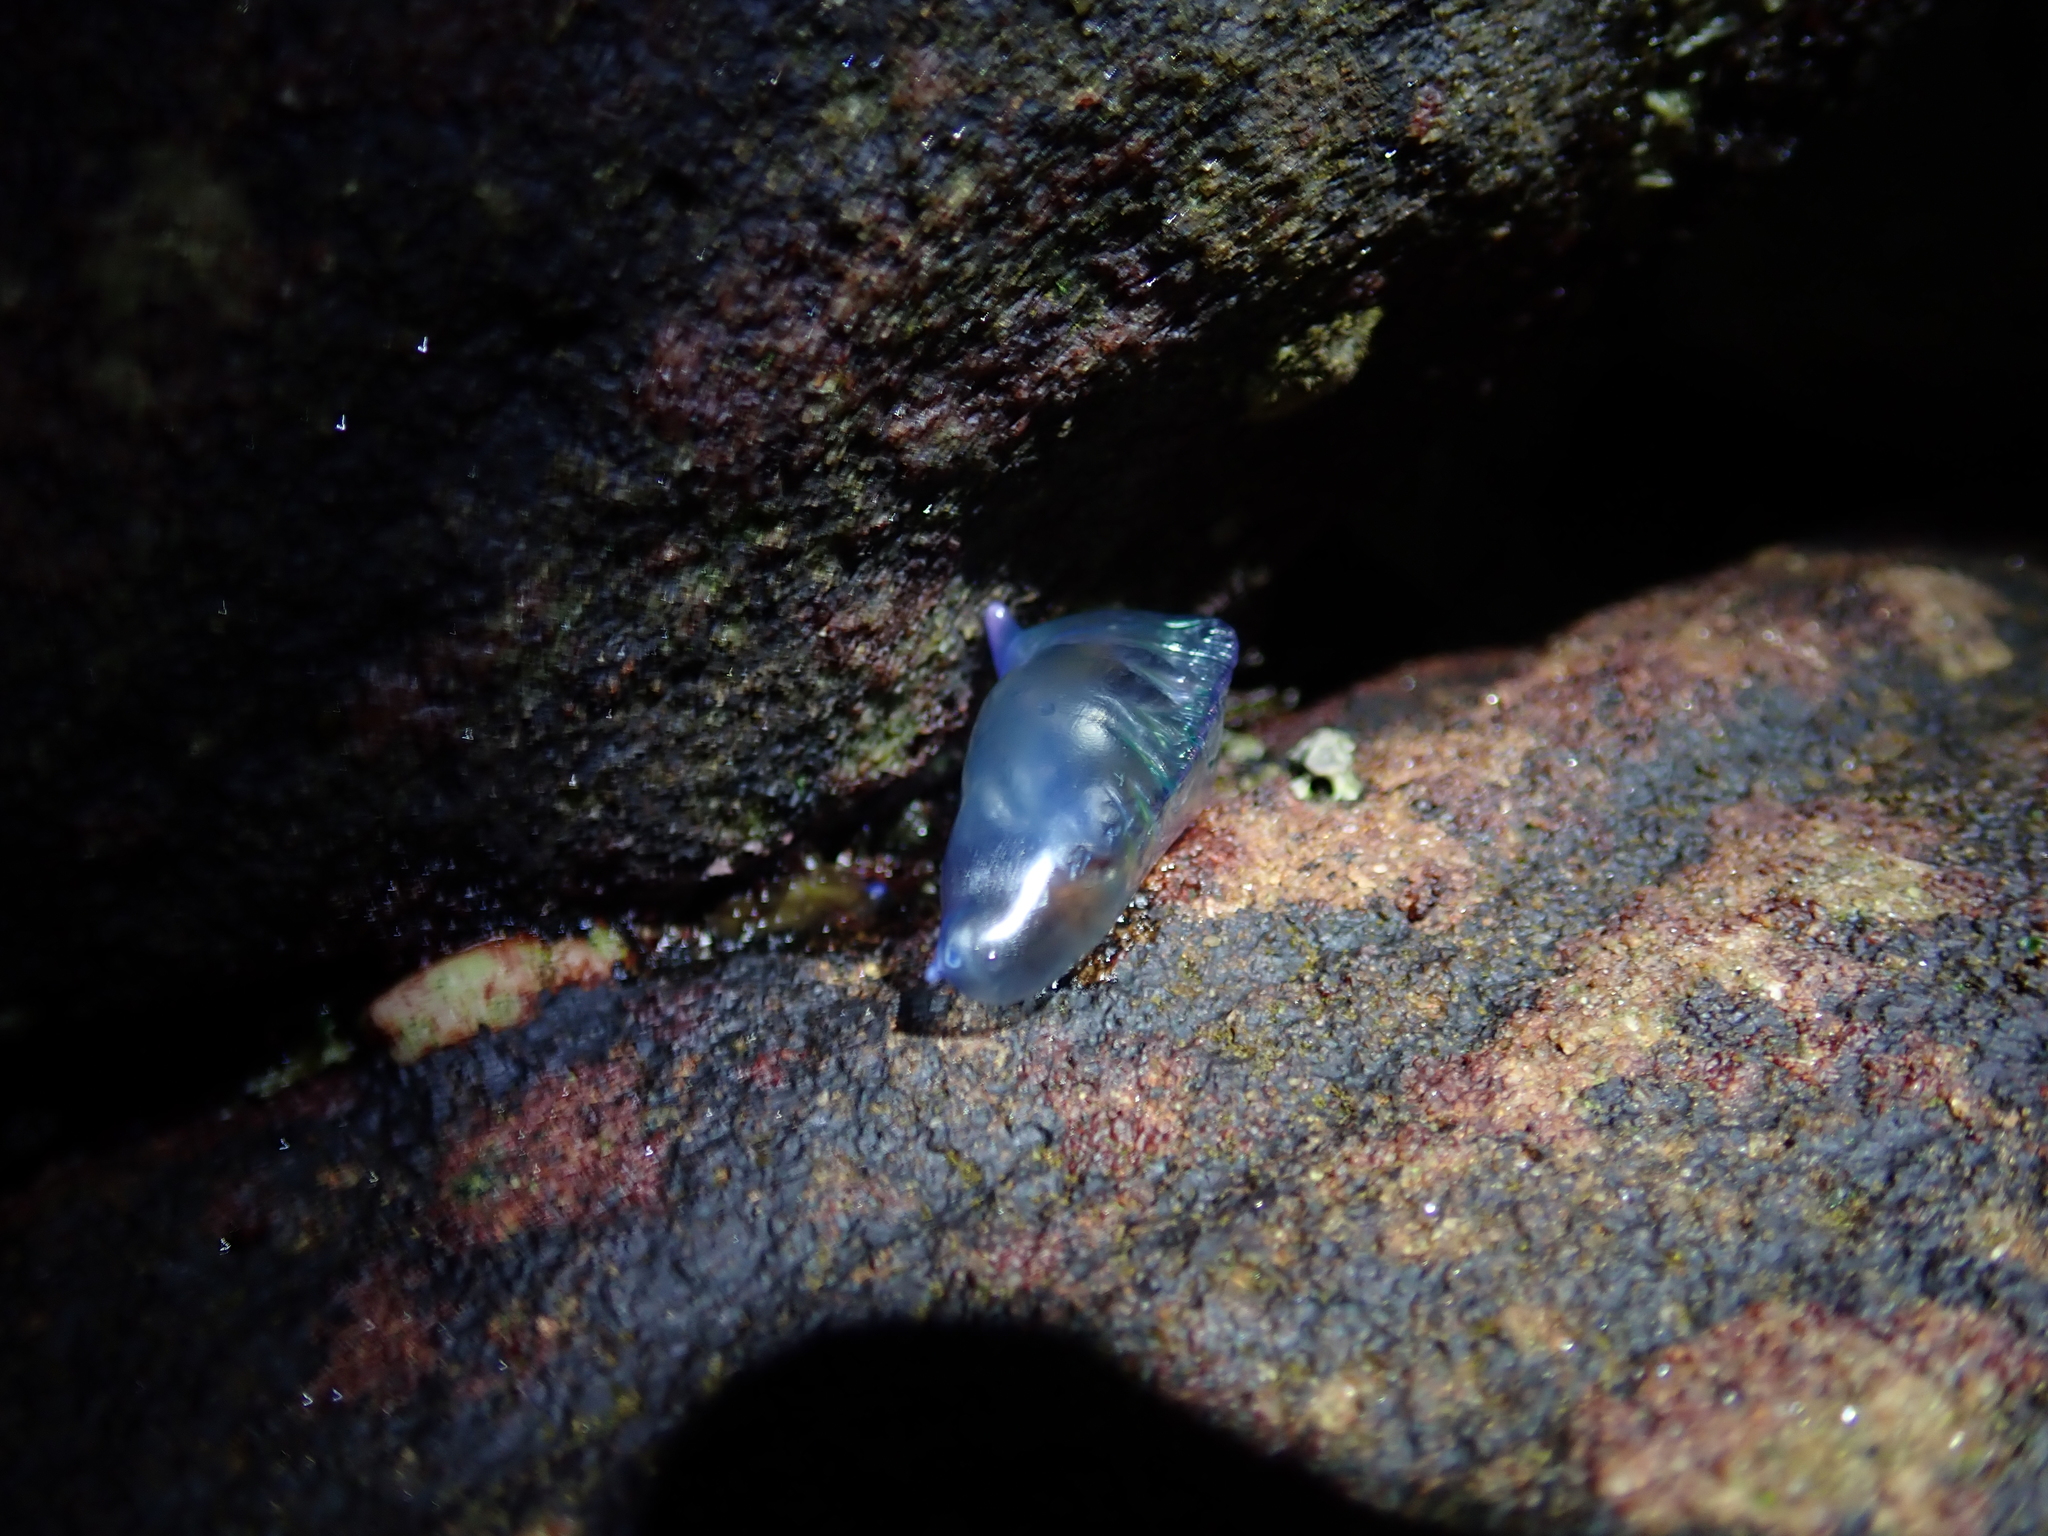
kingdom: Animalia
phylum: Cnidaria
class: Hydrozoa
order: Siphonophorae
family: Physaliidae
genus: Physalia
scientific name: Physalia physalis
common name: Portuguese man-of-war
